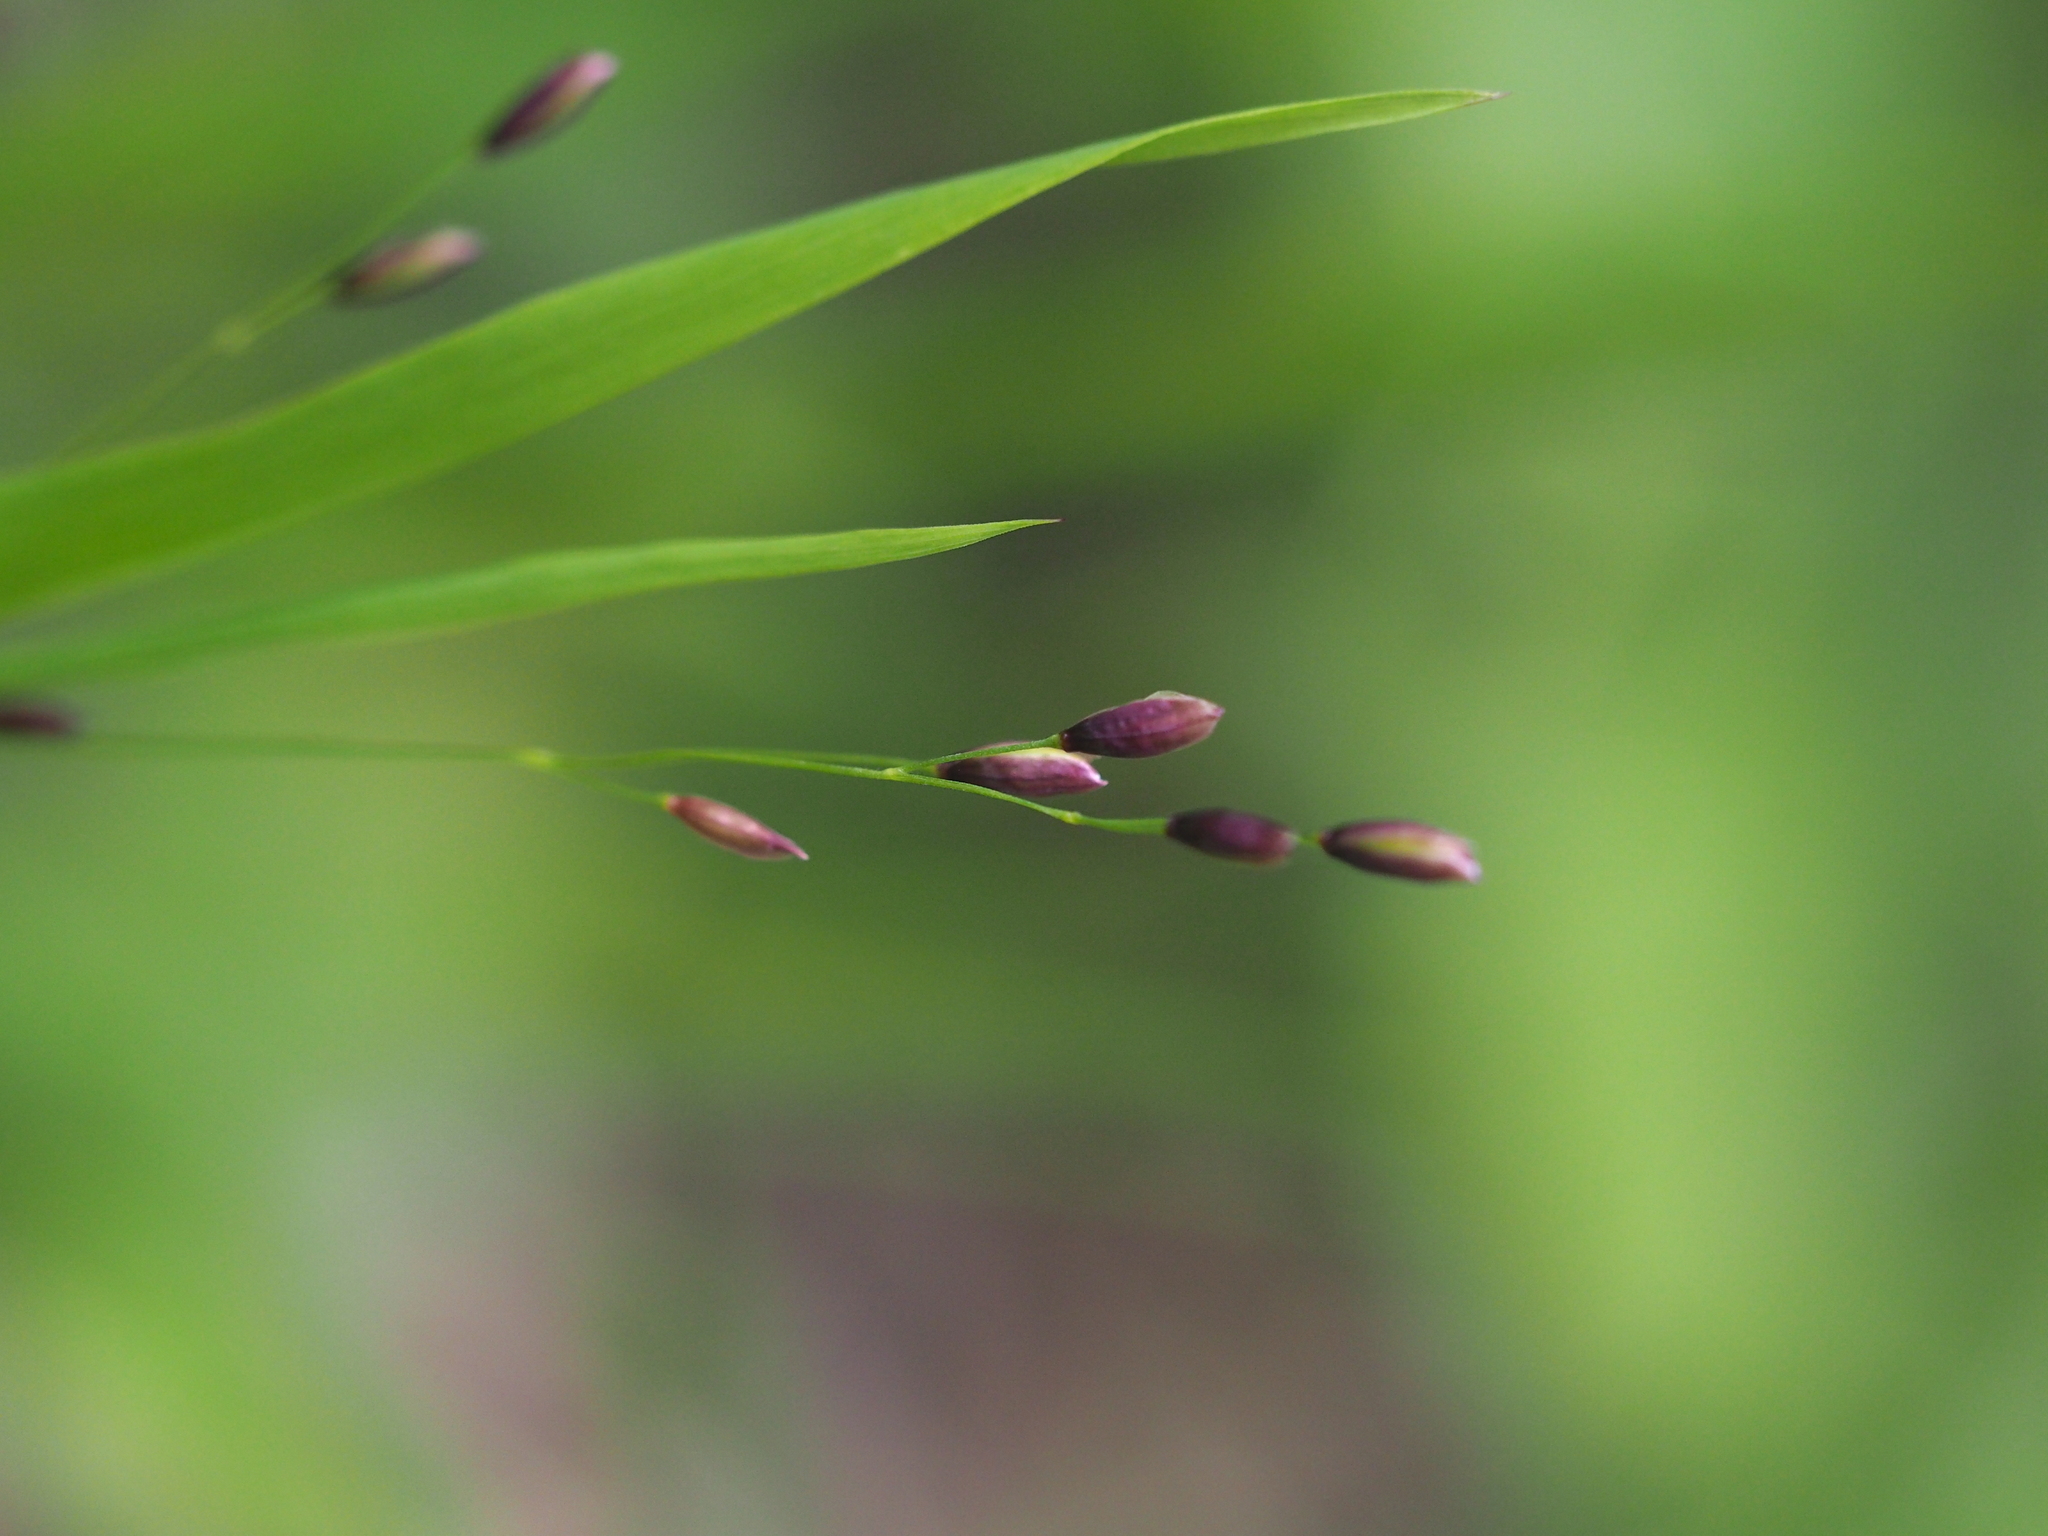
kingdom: Plantae
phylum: Tracheophyta
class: Liliopsida
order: Poales
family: Poaceae
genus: Melica
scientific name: Melica uniflora
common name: Wood melick
